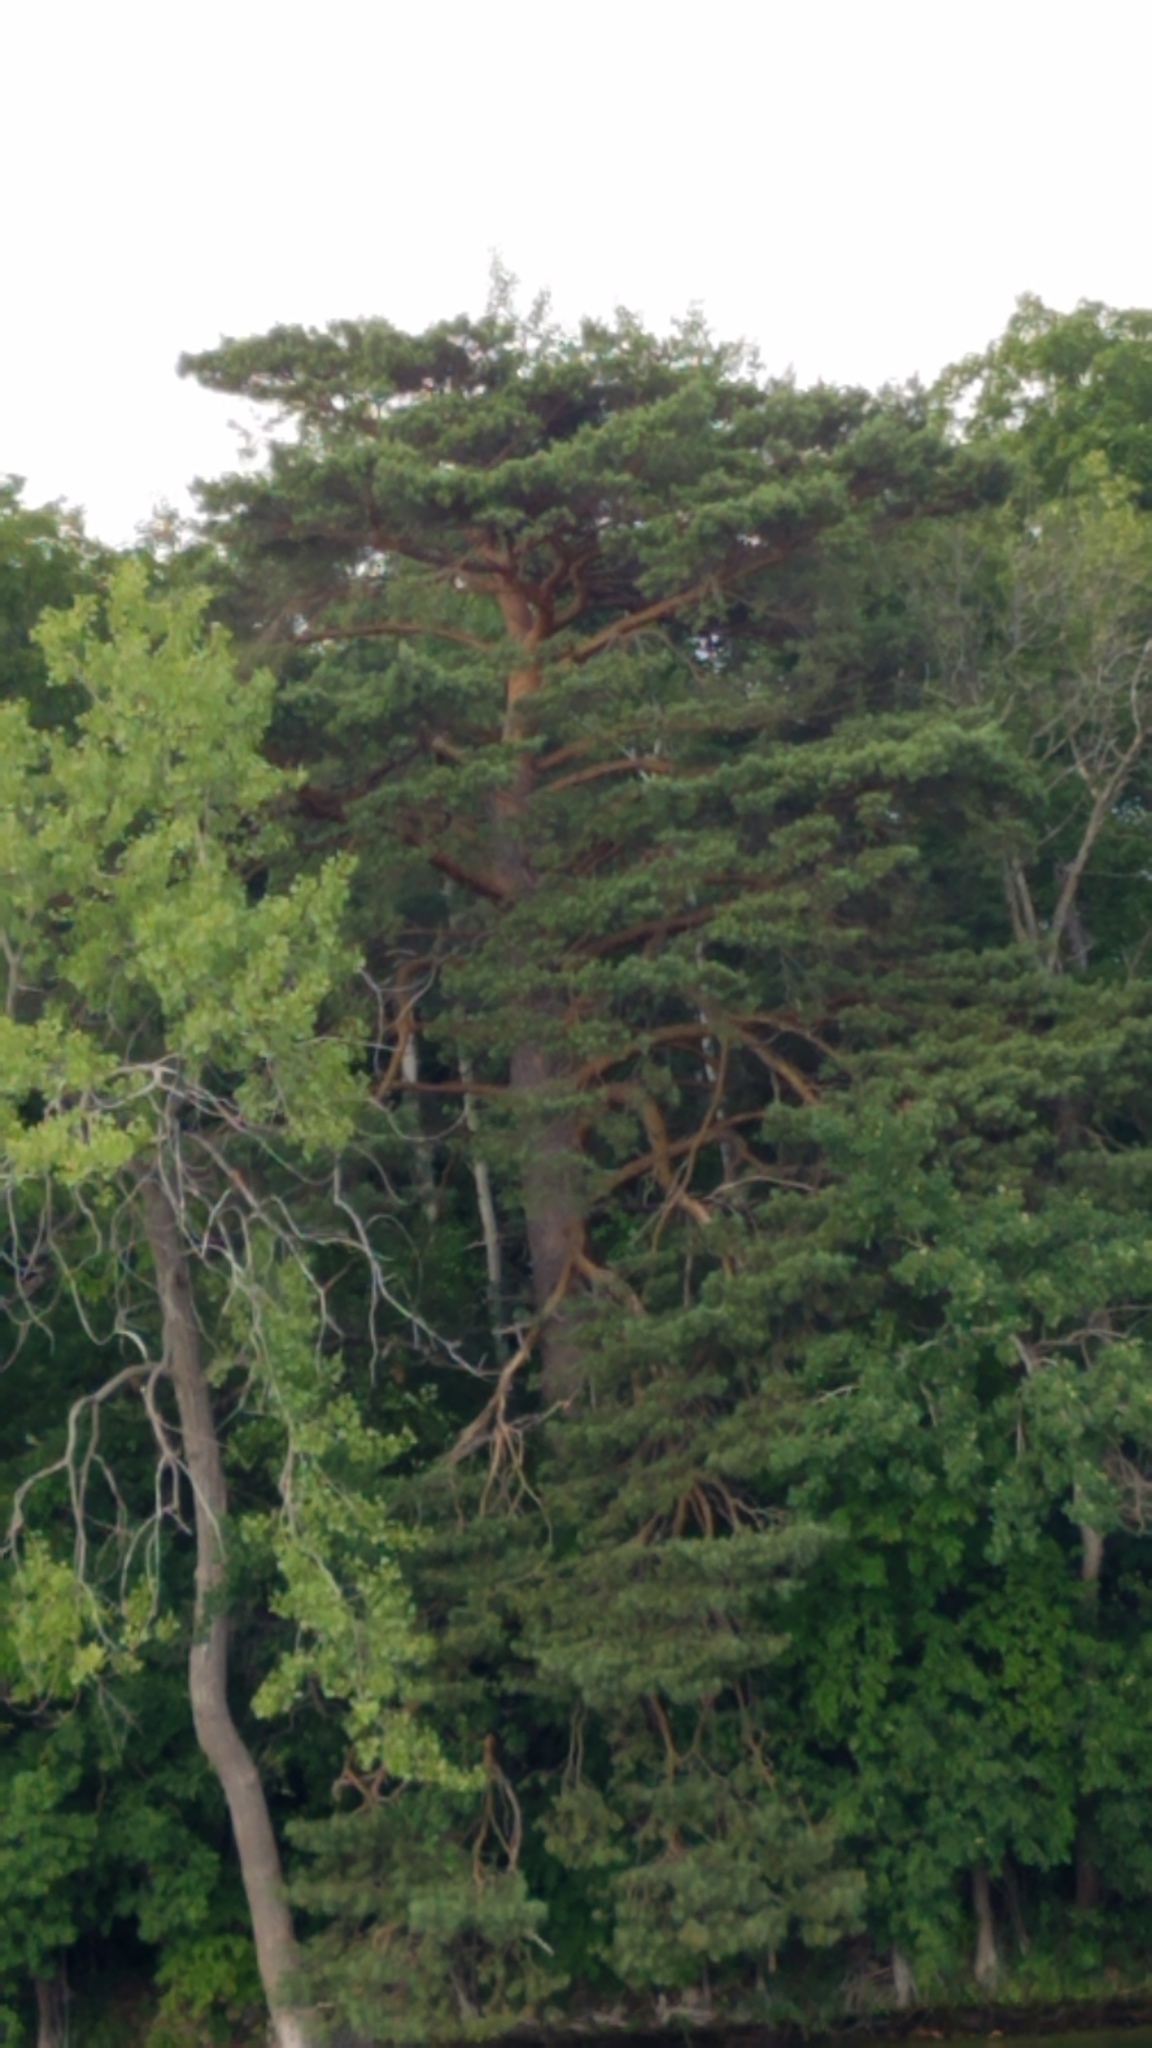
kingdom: Plantae
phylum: Tracheophyta
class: Pinopsida
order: Pinales
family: Pinaceae
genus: Pinus
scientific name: Pinus sylvestris
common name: Scots pine
